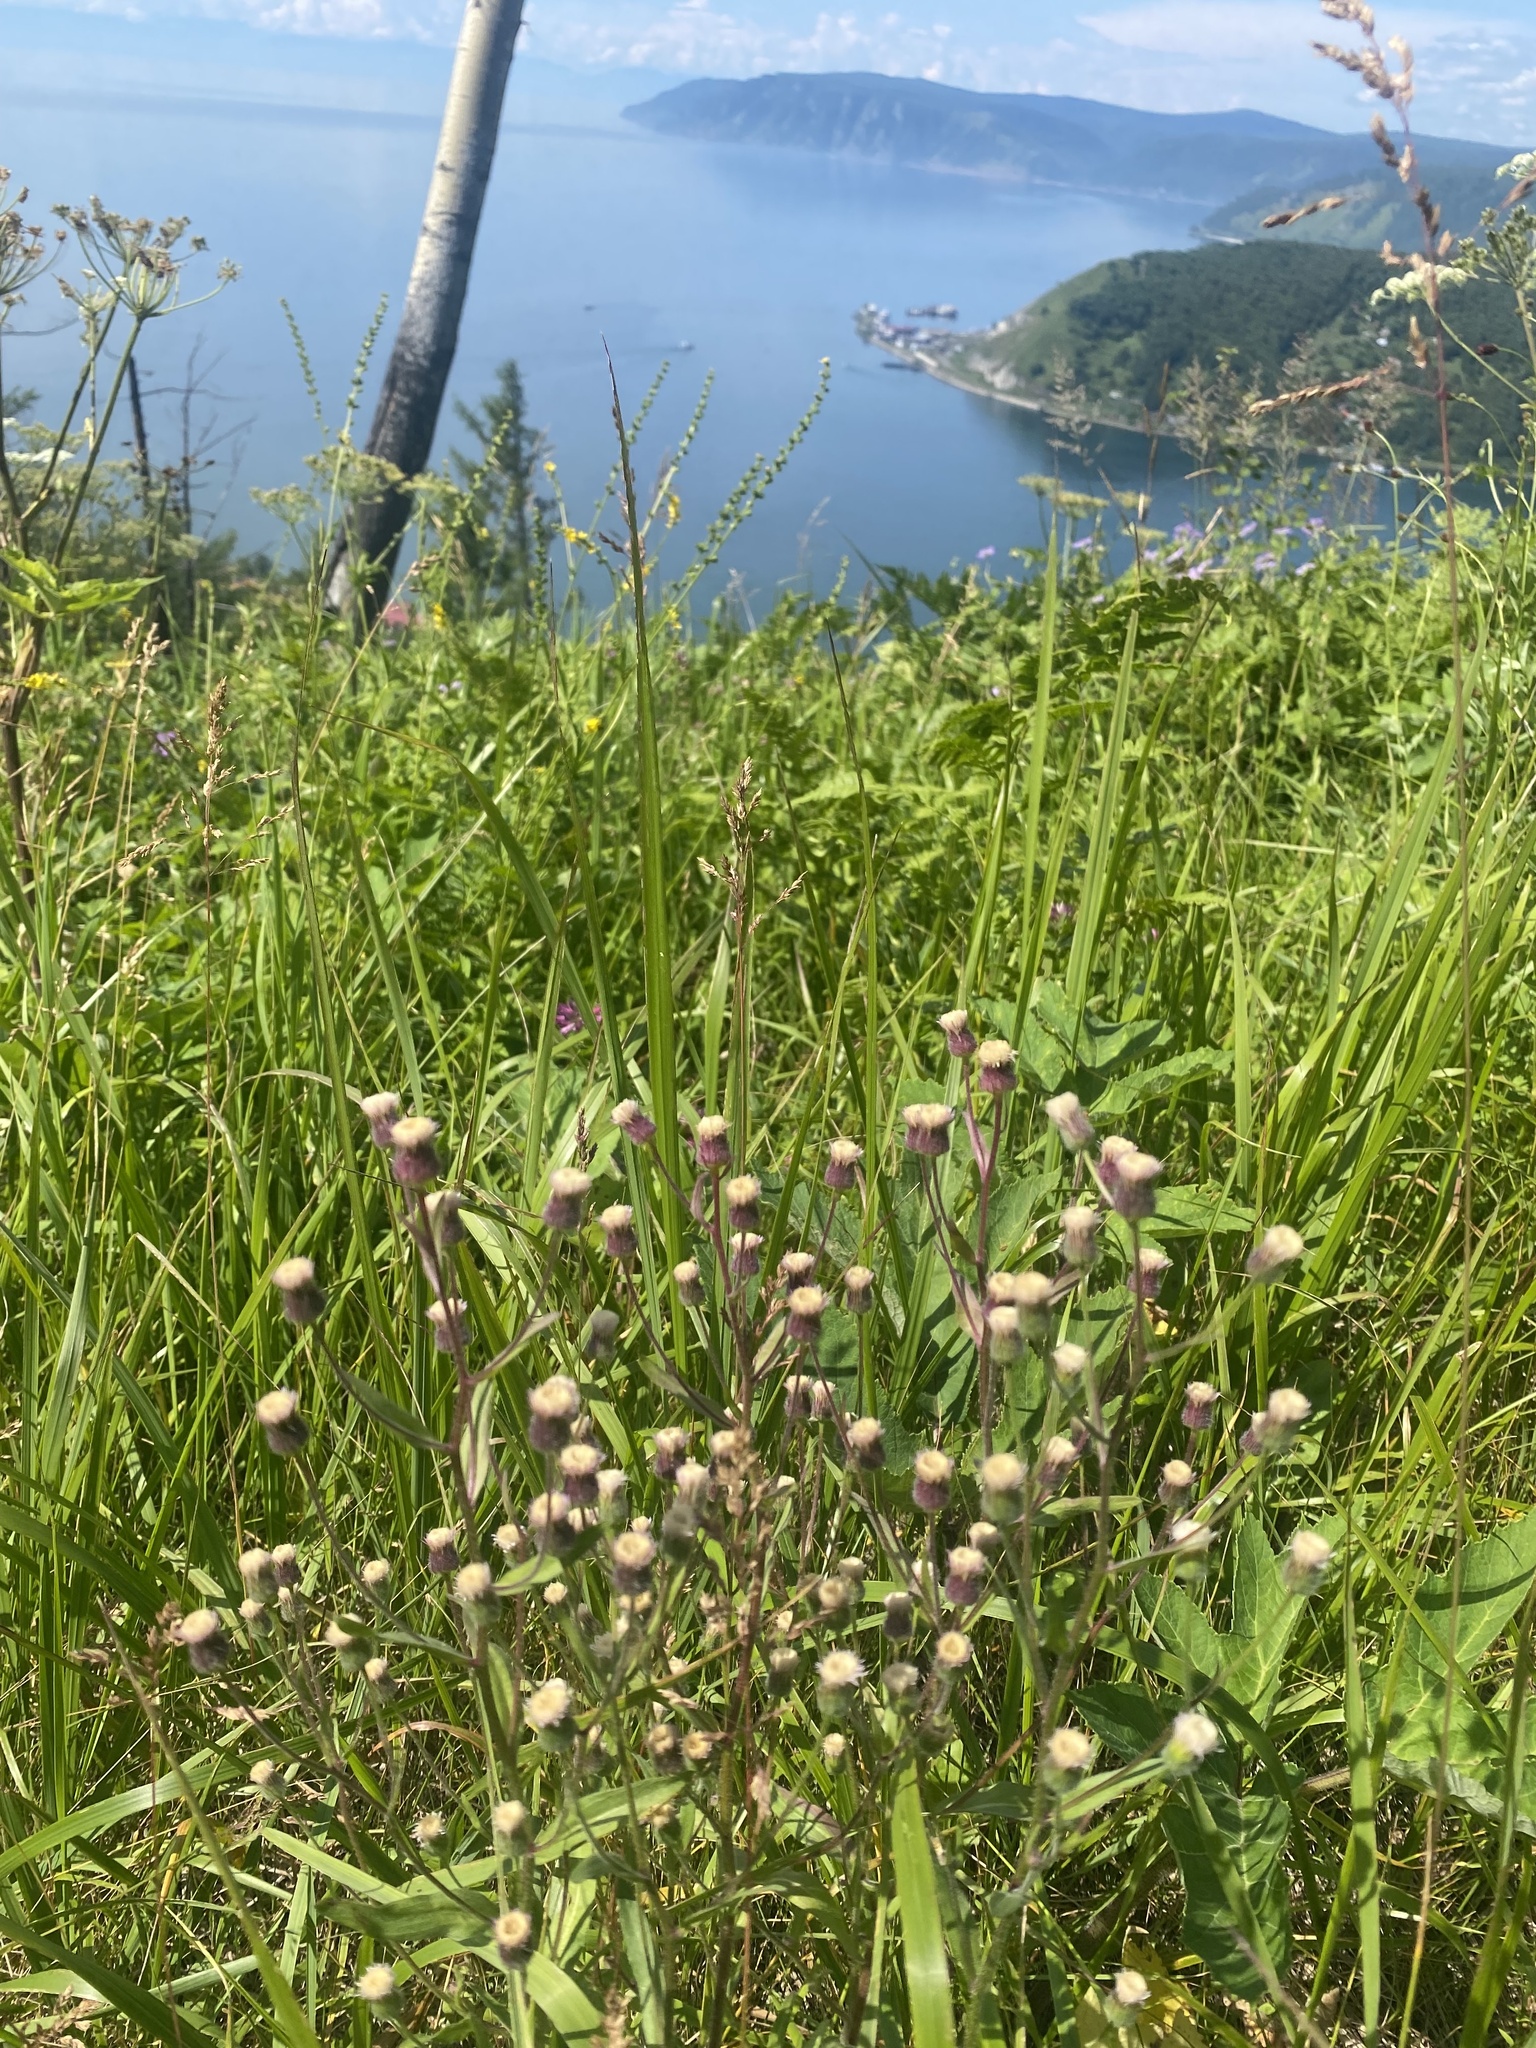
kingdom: Plantae
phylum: Tracheophyta
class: Magnoliopsida
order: Asterales
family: Asteraceae
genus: Erigeron
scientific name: Erigeron acris
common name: Blue fleabane
